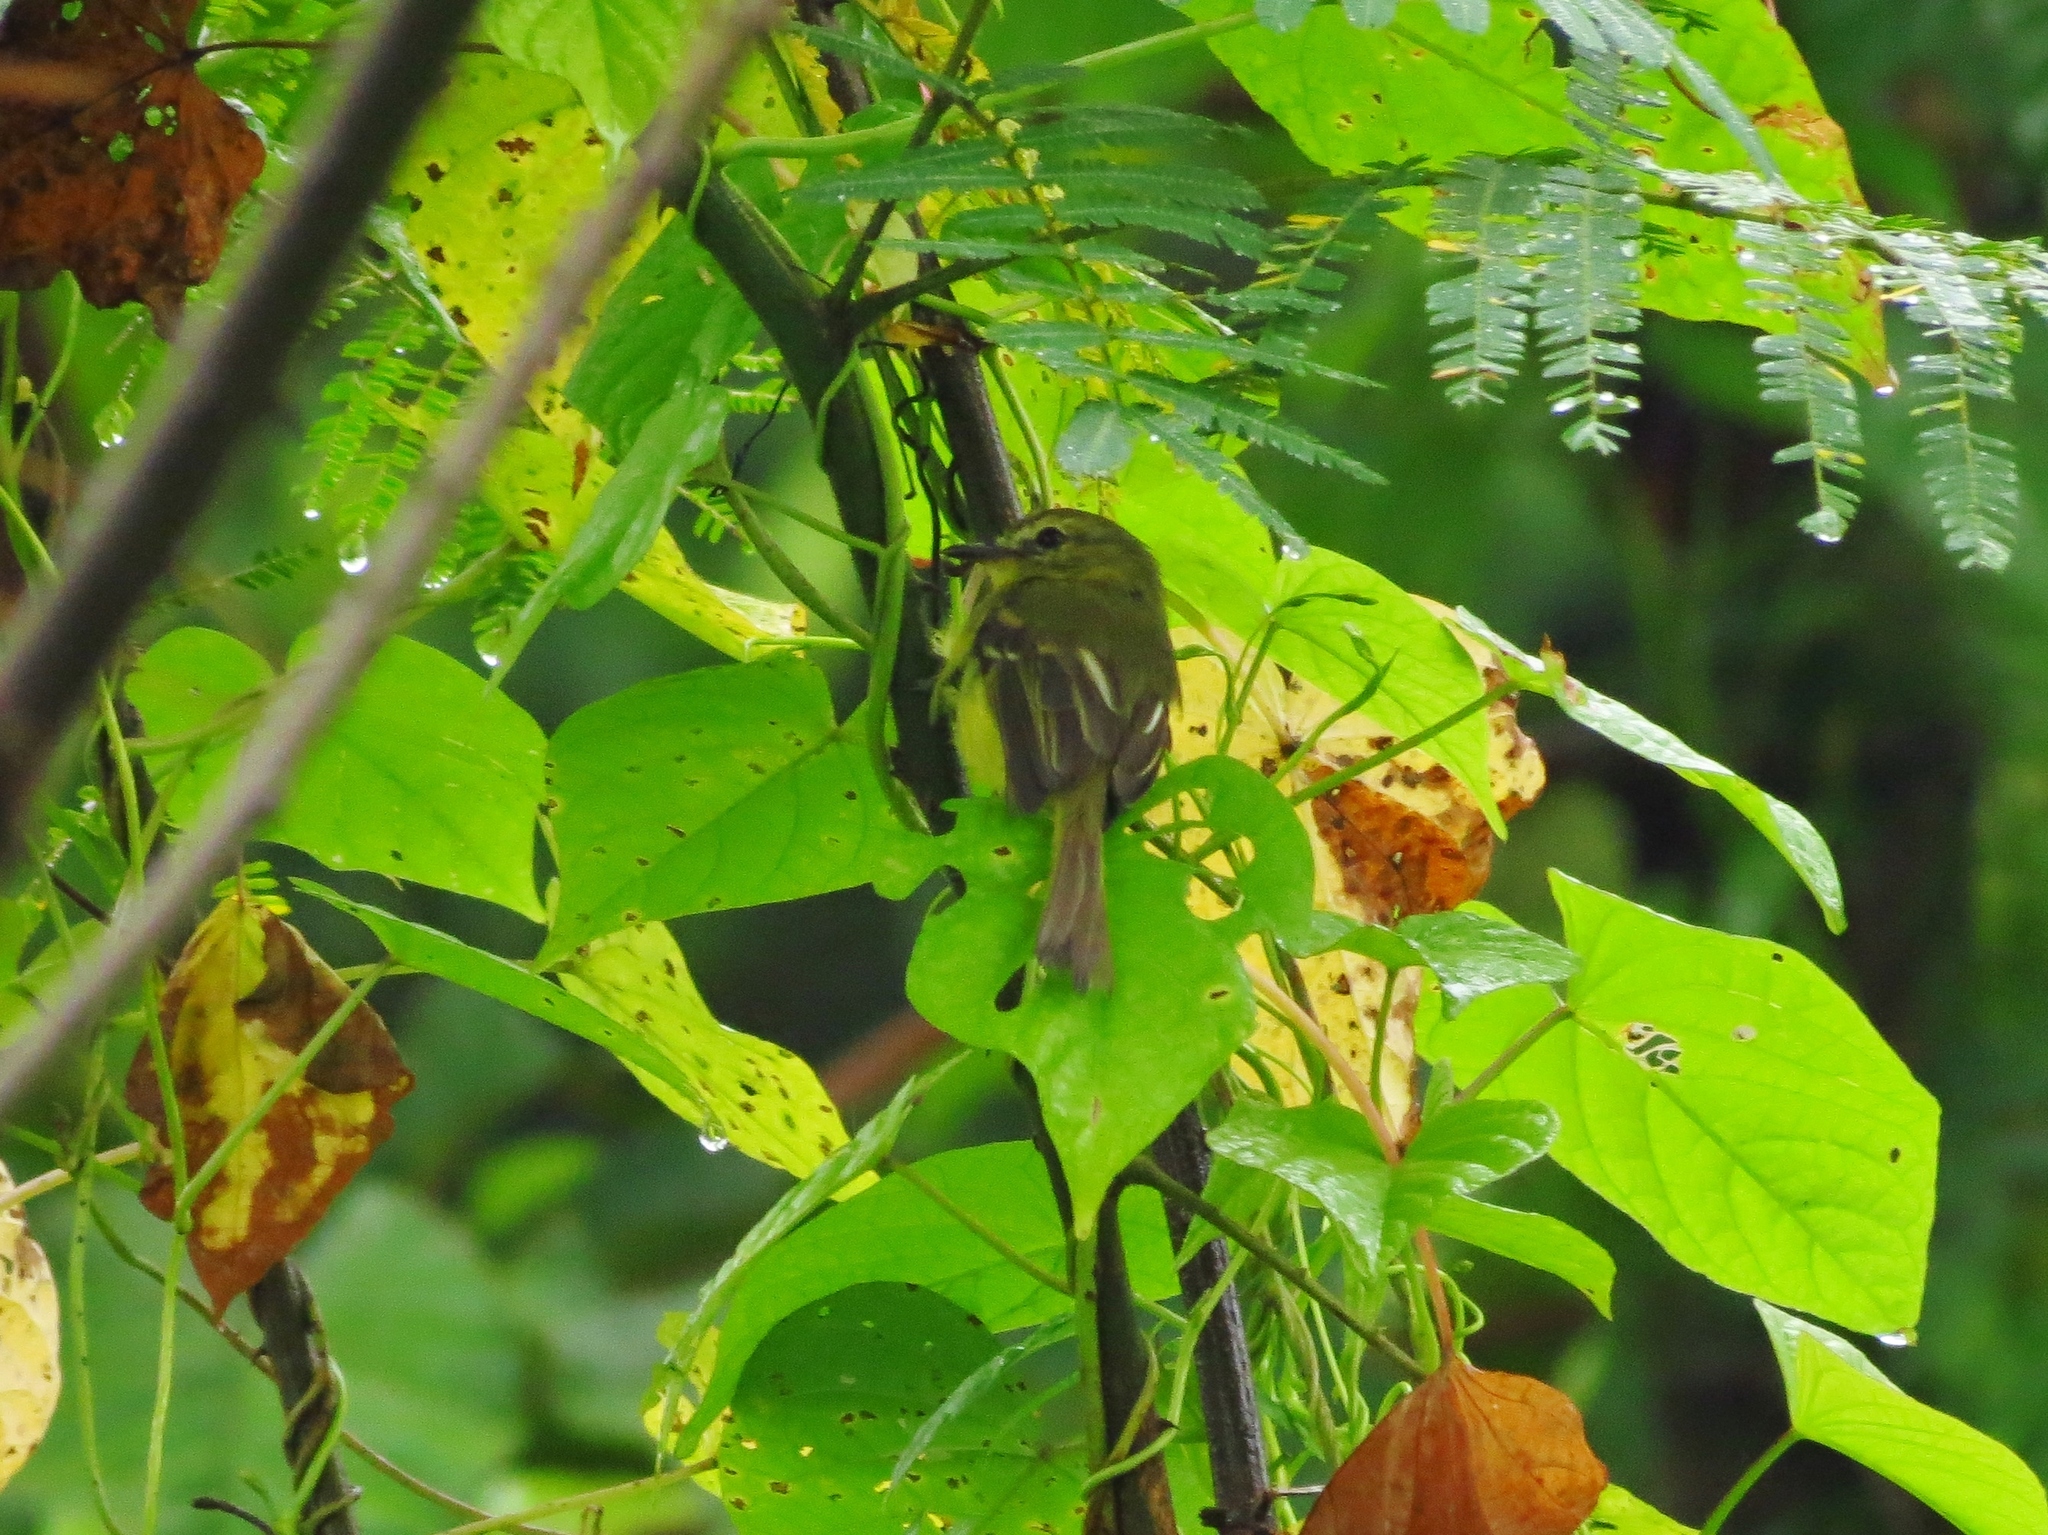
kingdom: Animalia
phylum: Chordata
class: Aves
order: Passeriformes
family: Tyrannidae
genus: Capsiempis
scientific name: Capsiempis flaveola
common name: Yellow tyrannulet
